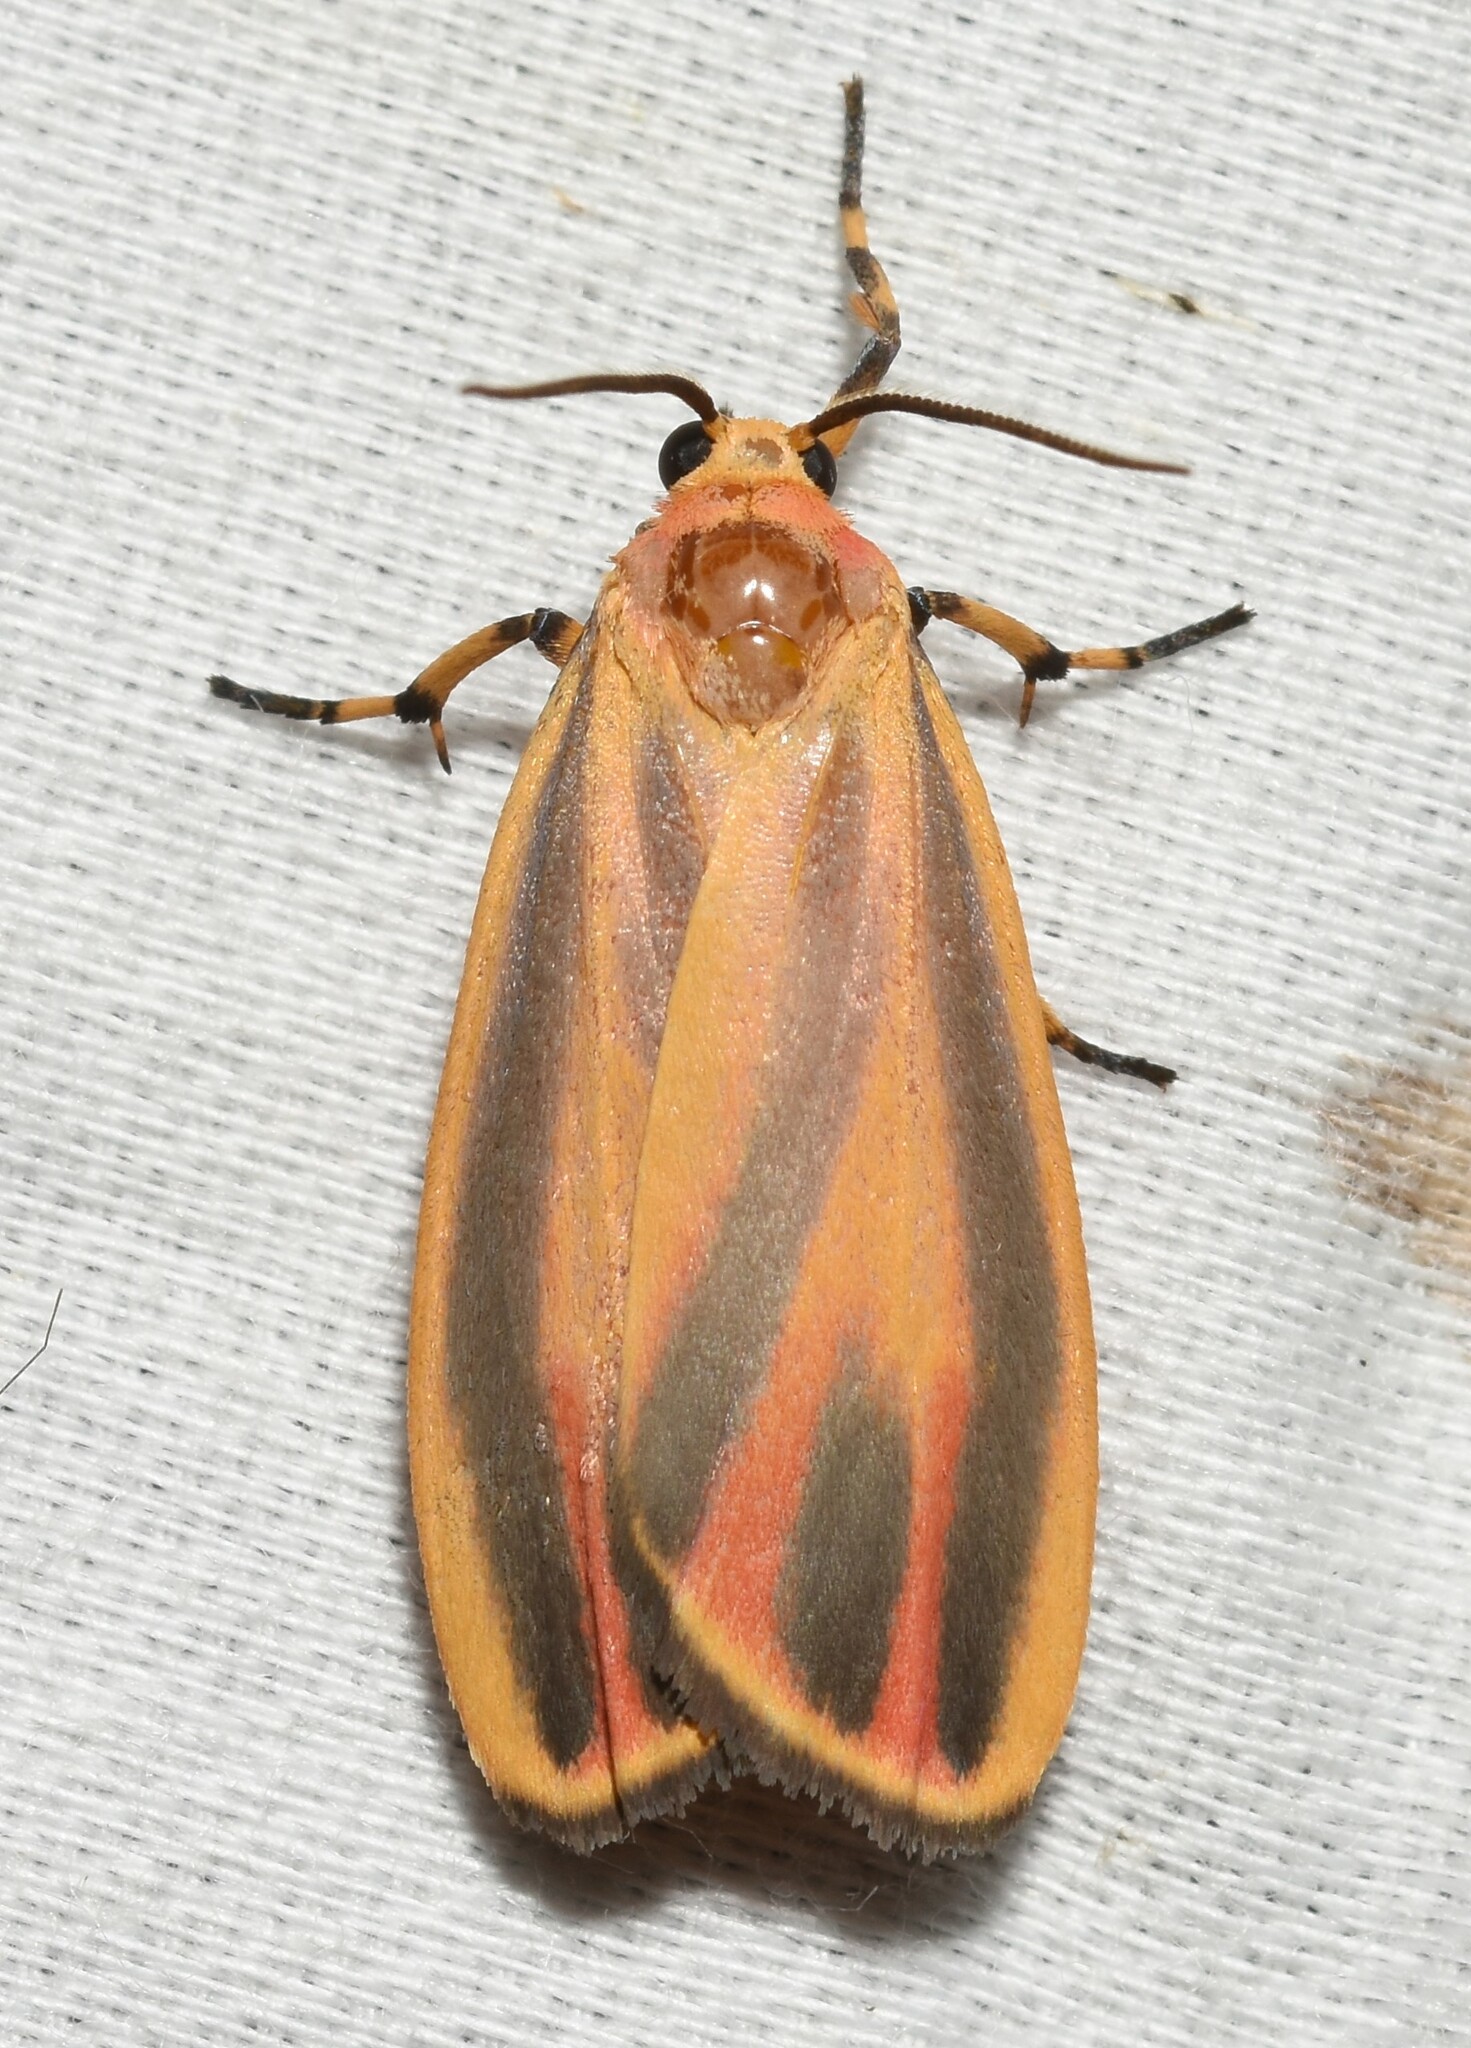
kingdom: Animalia
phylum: Arthropoda
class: Insecta
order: Lepidoptera
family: Erebidae
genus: Hypoprepia
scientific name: Hypoprepia fucosa
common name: Painted lichen moth
